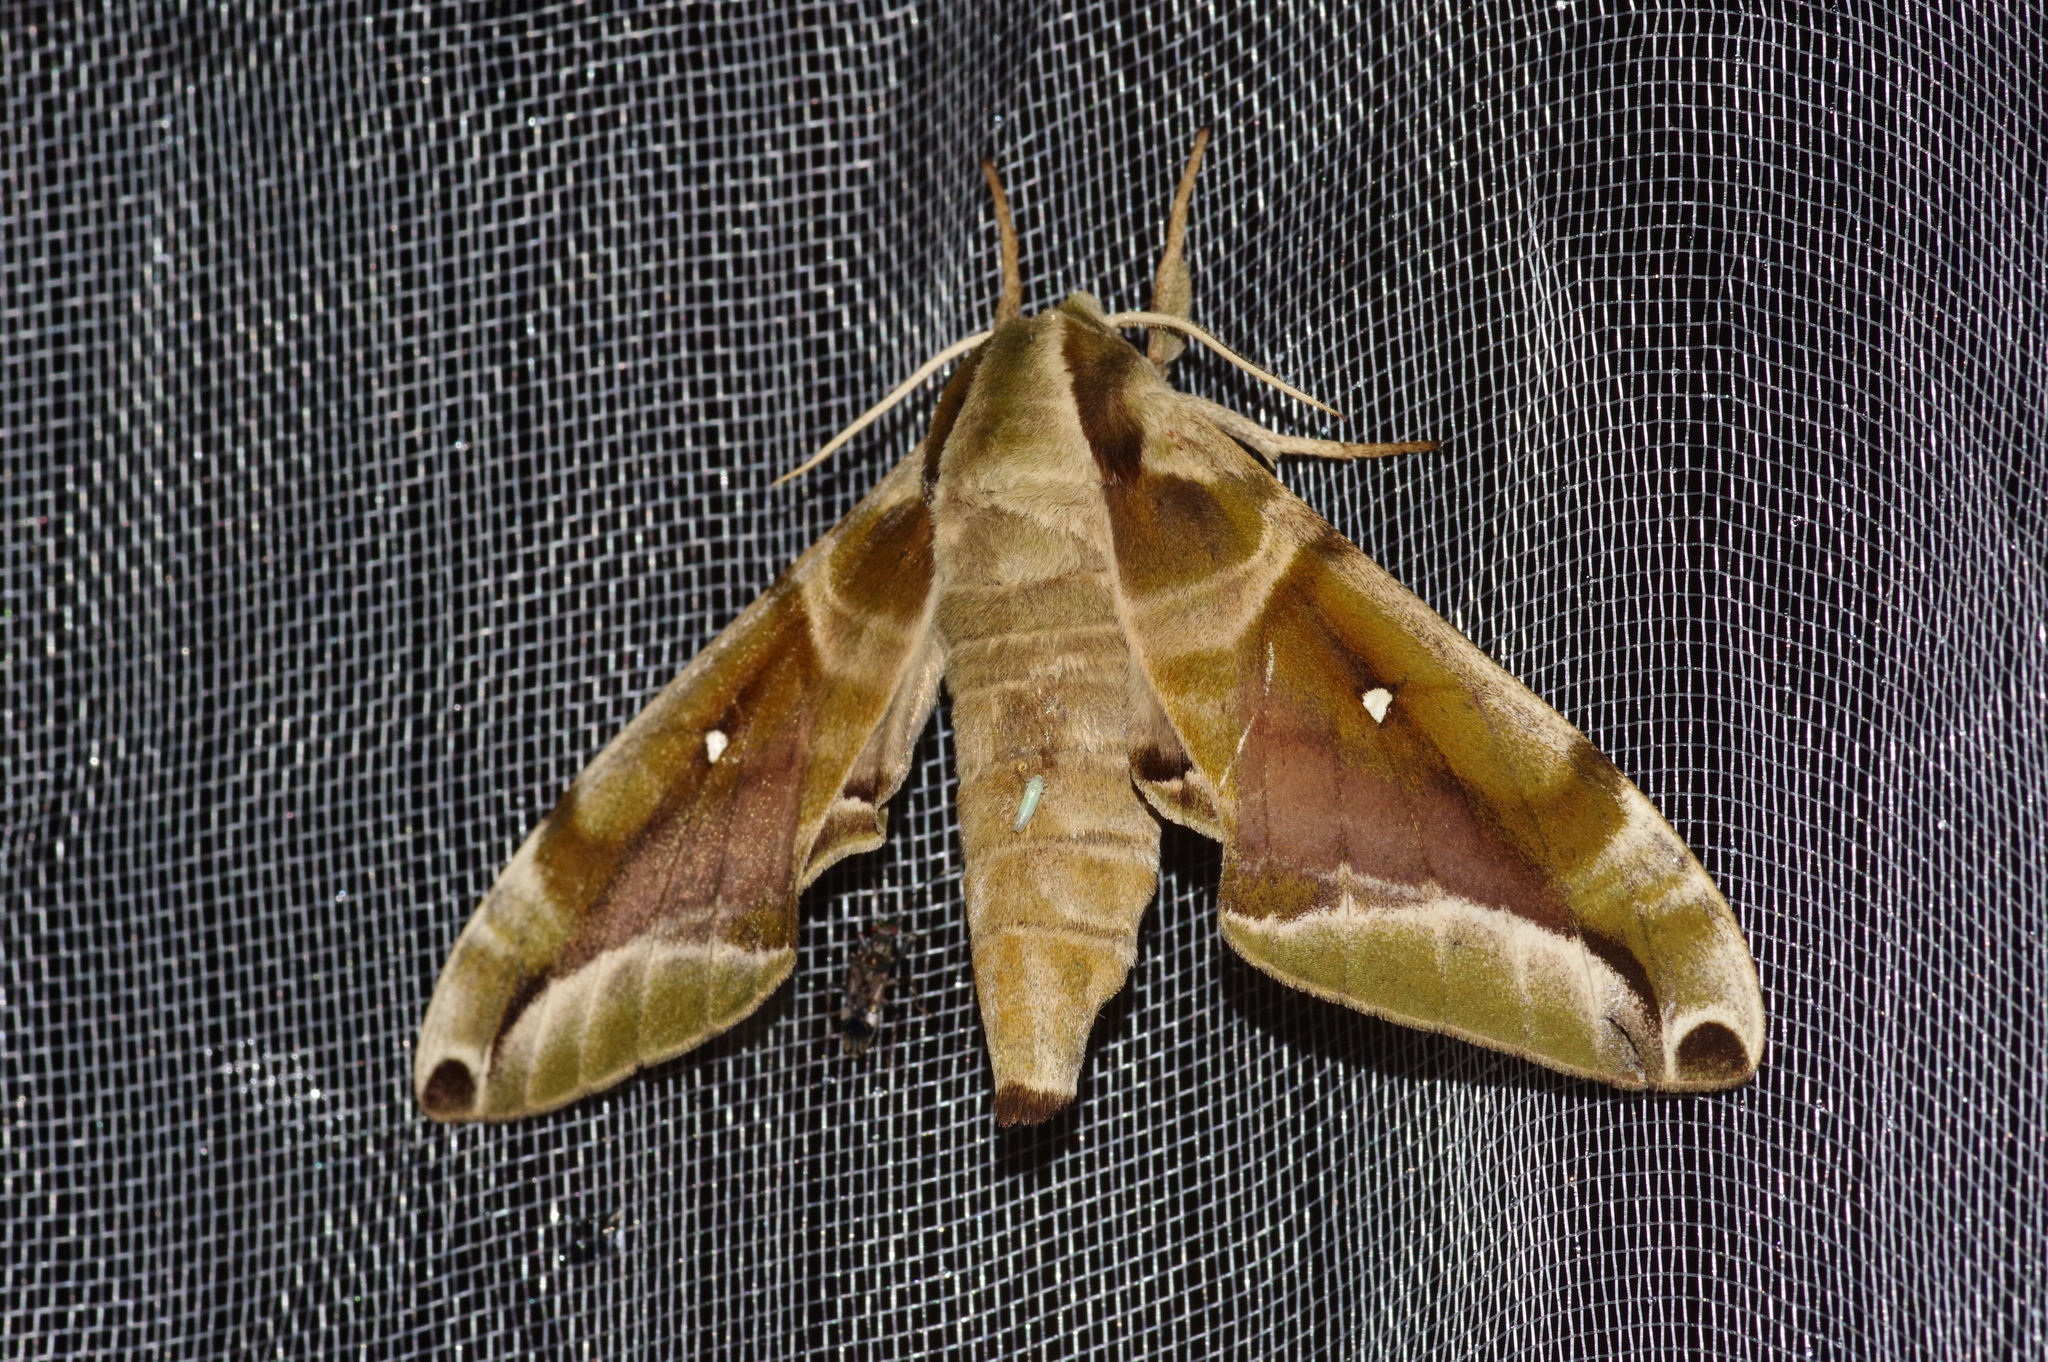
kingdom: Animalia
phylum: Arthropoda
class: Insecta
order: Lepidoptera
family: Sphingidae
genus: Parum
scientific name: Parum colligata
